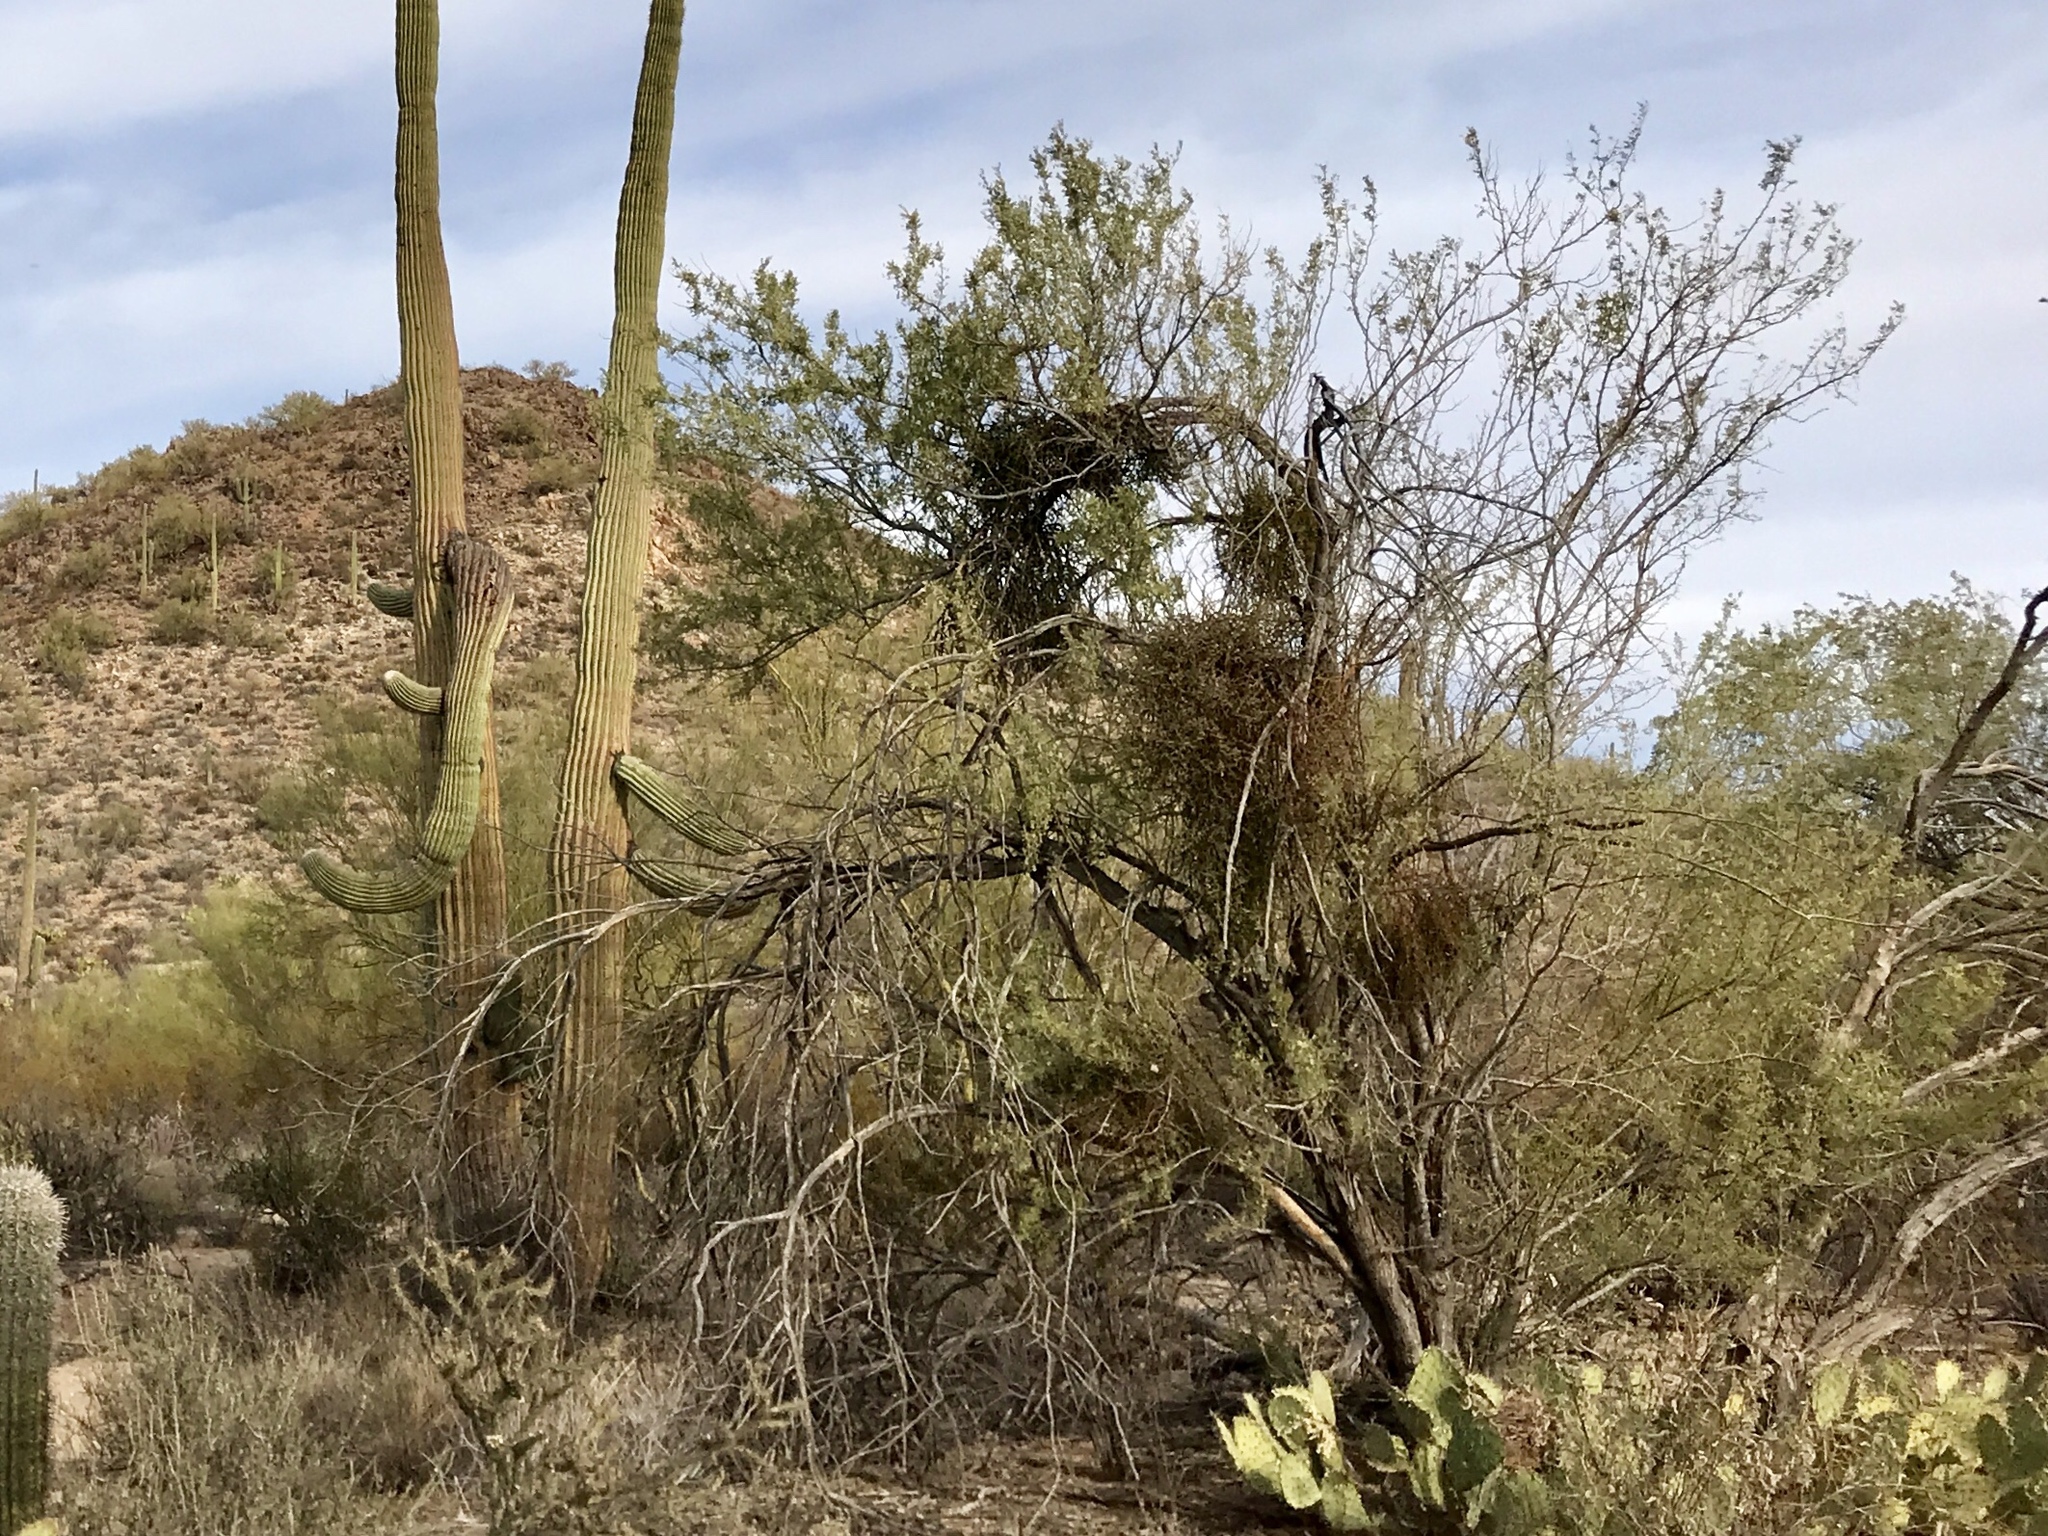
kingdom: Plantae
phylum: Tracheophyta
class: Magnoliopsida
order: Fabales
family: Fabaceae
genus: Olneya
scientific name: Olneya tesota
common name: Desert ironwood
